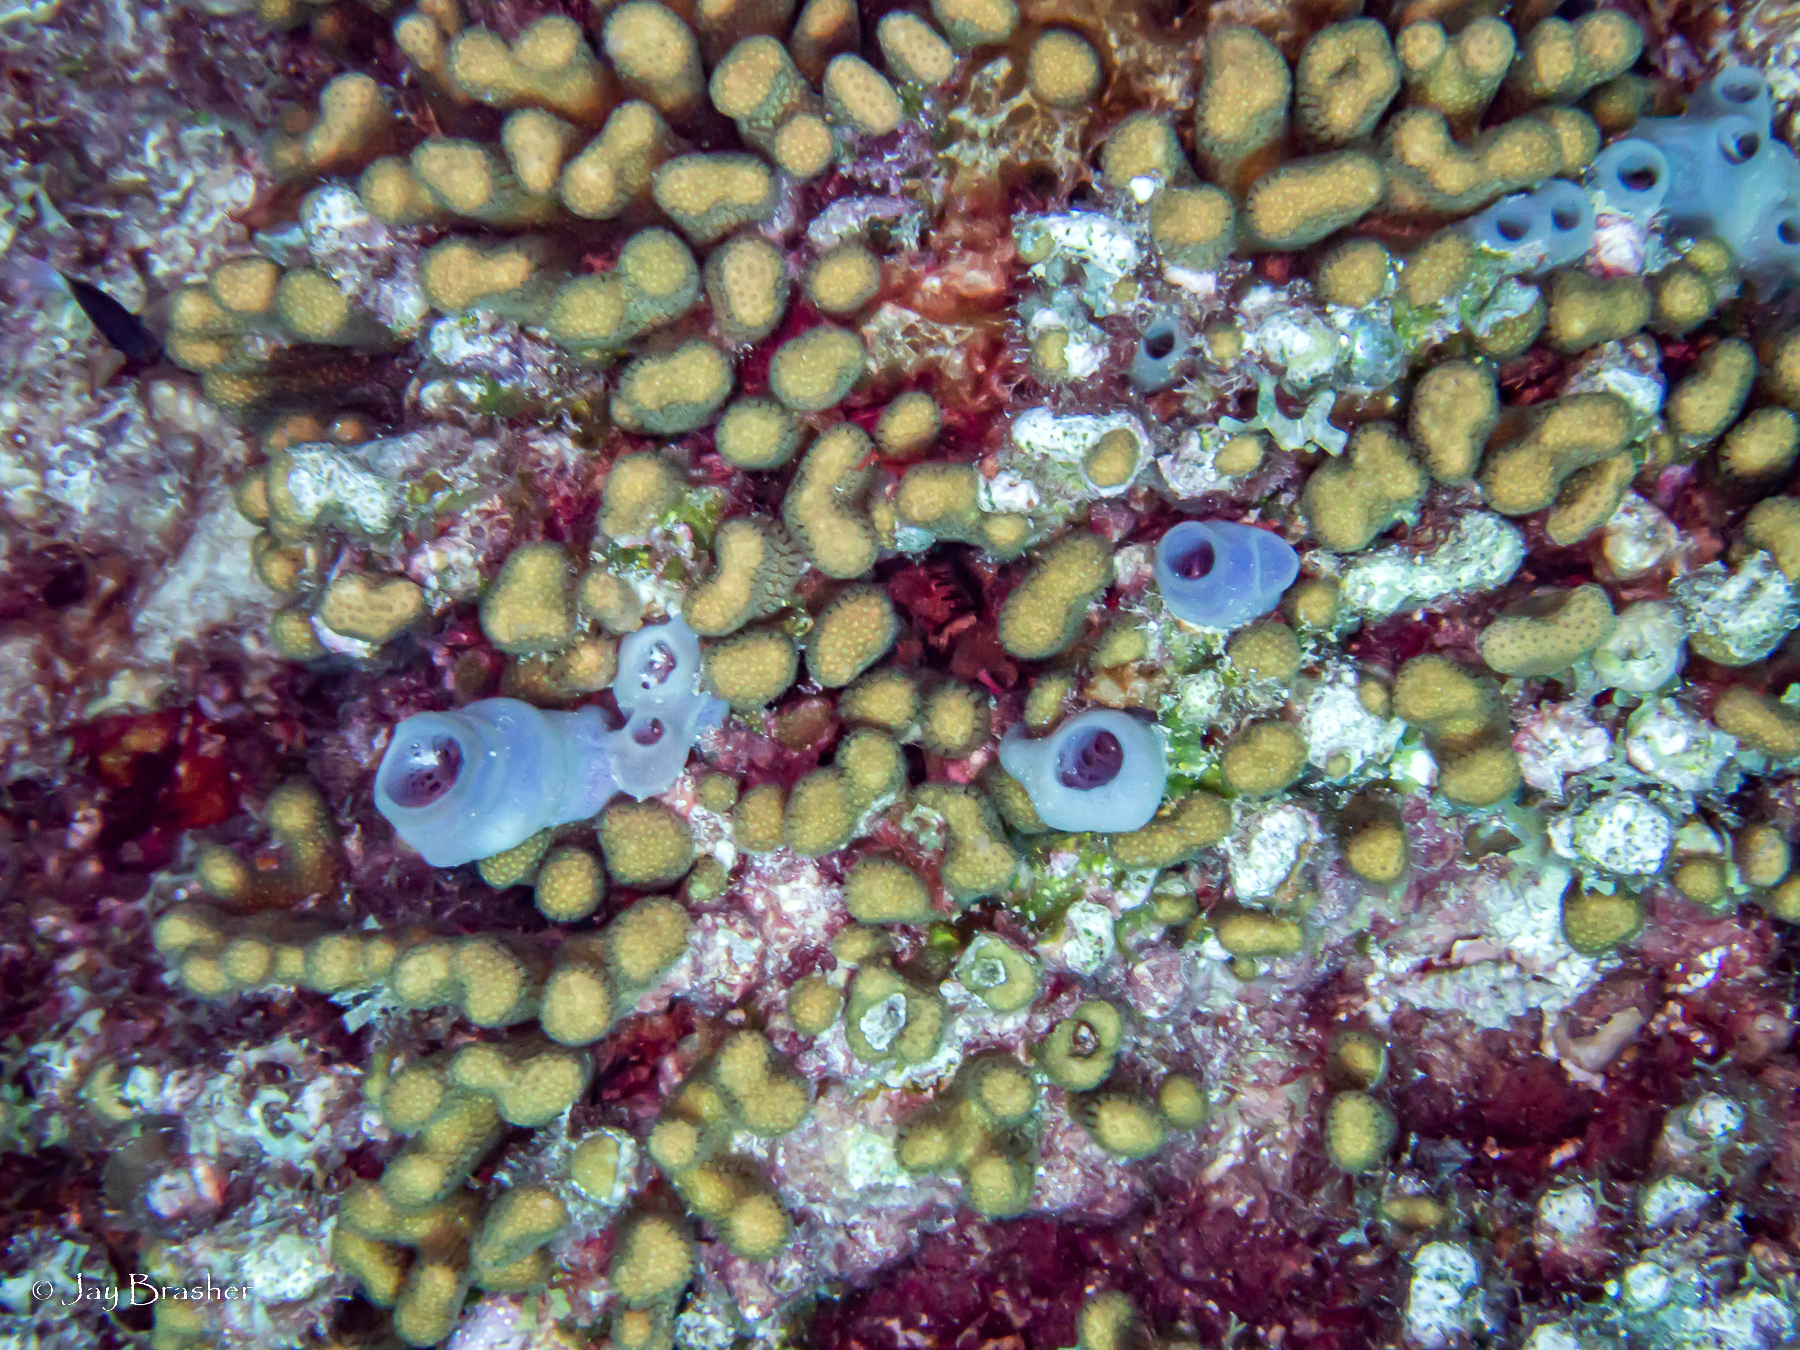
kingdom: Animalia
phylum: Porifera
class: Demospongiae
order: Haplosclerida
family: Callyspongiidae
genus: Callyspongia
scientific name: Callyspongia fallax
